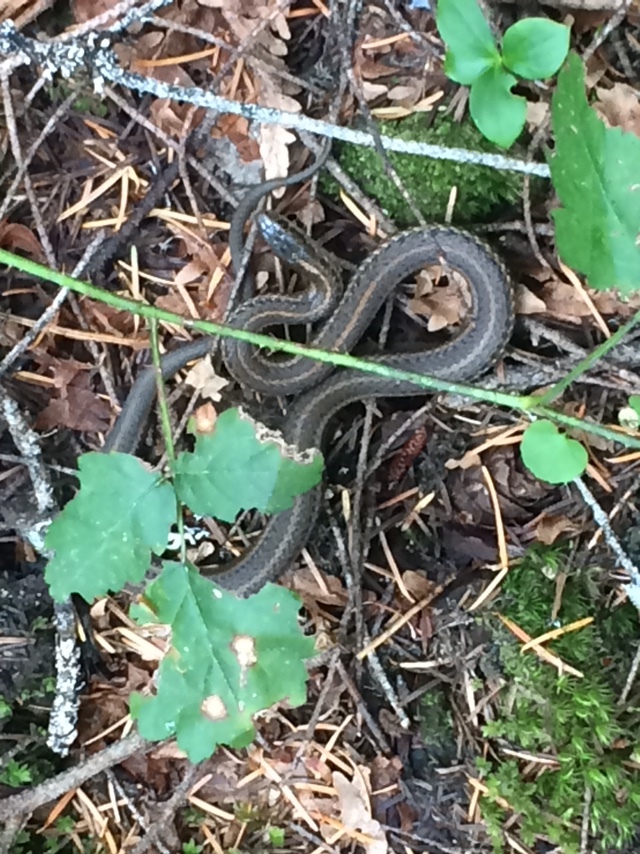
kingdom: Animalia
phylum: Chordata
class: Squamata
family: Colubridae
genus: Thamnophis
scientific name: Thamnophis ordinoides
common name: Northwestern garter snake
